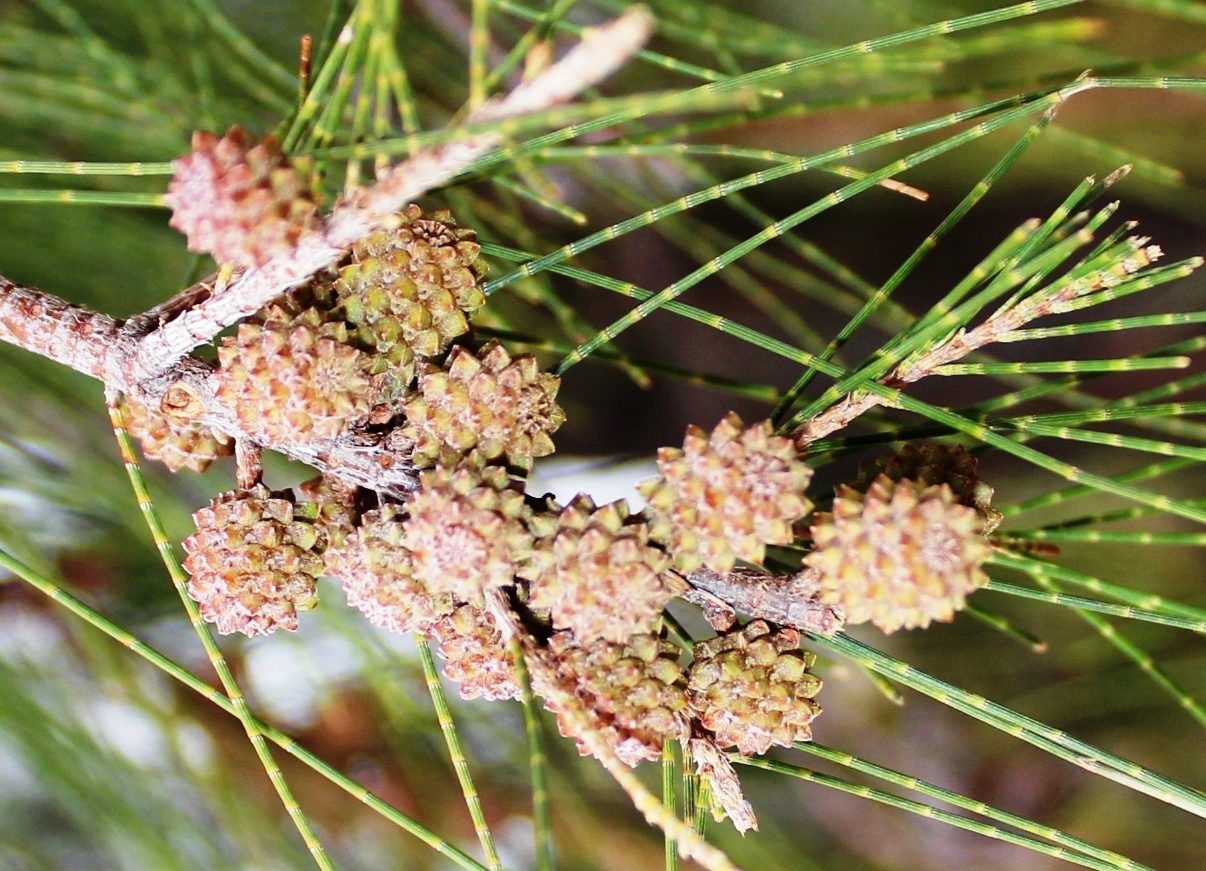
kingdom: Plantae
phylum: Tracheophyta
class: Magnoliopsida
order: Fagales
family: Casuarinaceae
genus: Casuarina
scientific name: Casuarina cunninghamiana
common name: River sheoak
